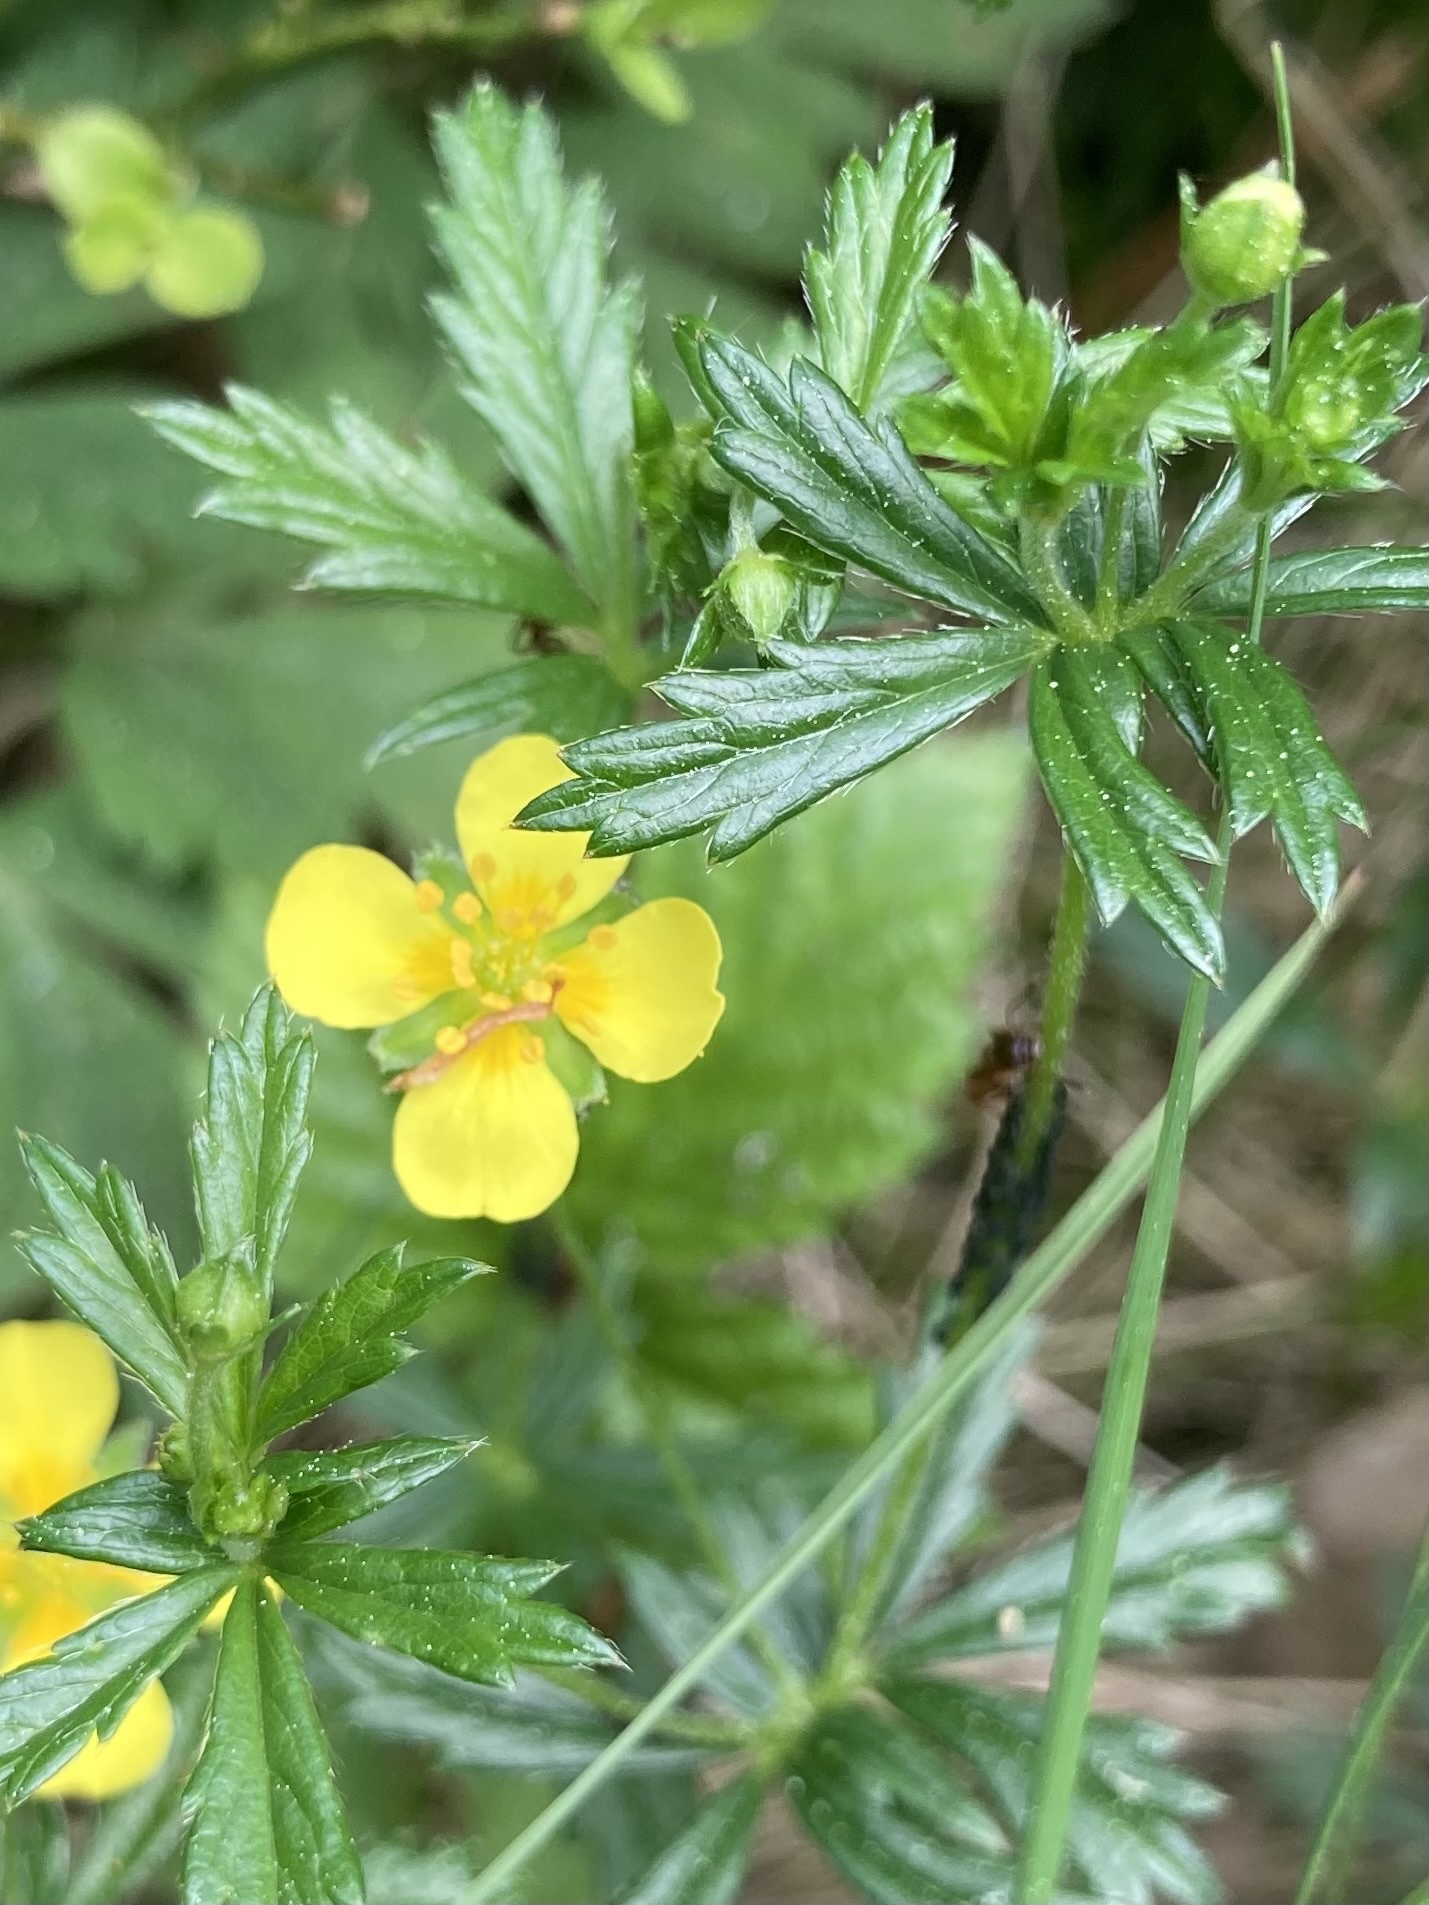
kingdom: Plantae
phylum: Tracheophyta
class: Magnoliopsida
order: Rosales
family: Rosaceae
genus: Potentilla
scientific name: Potentilla erecta
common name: Tormentil
